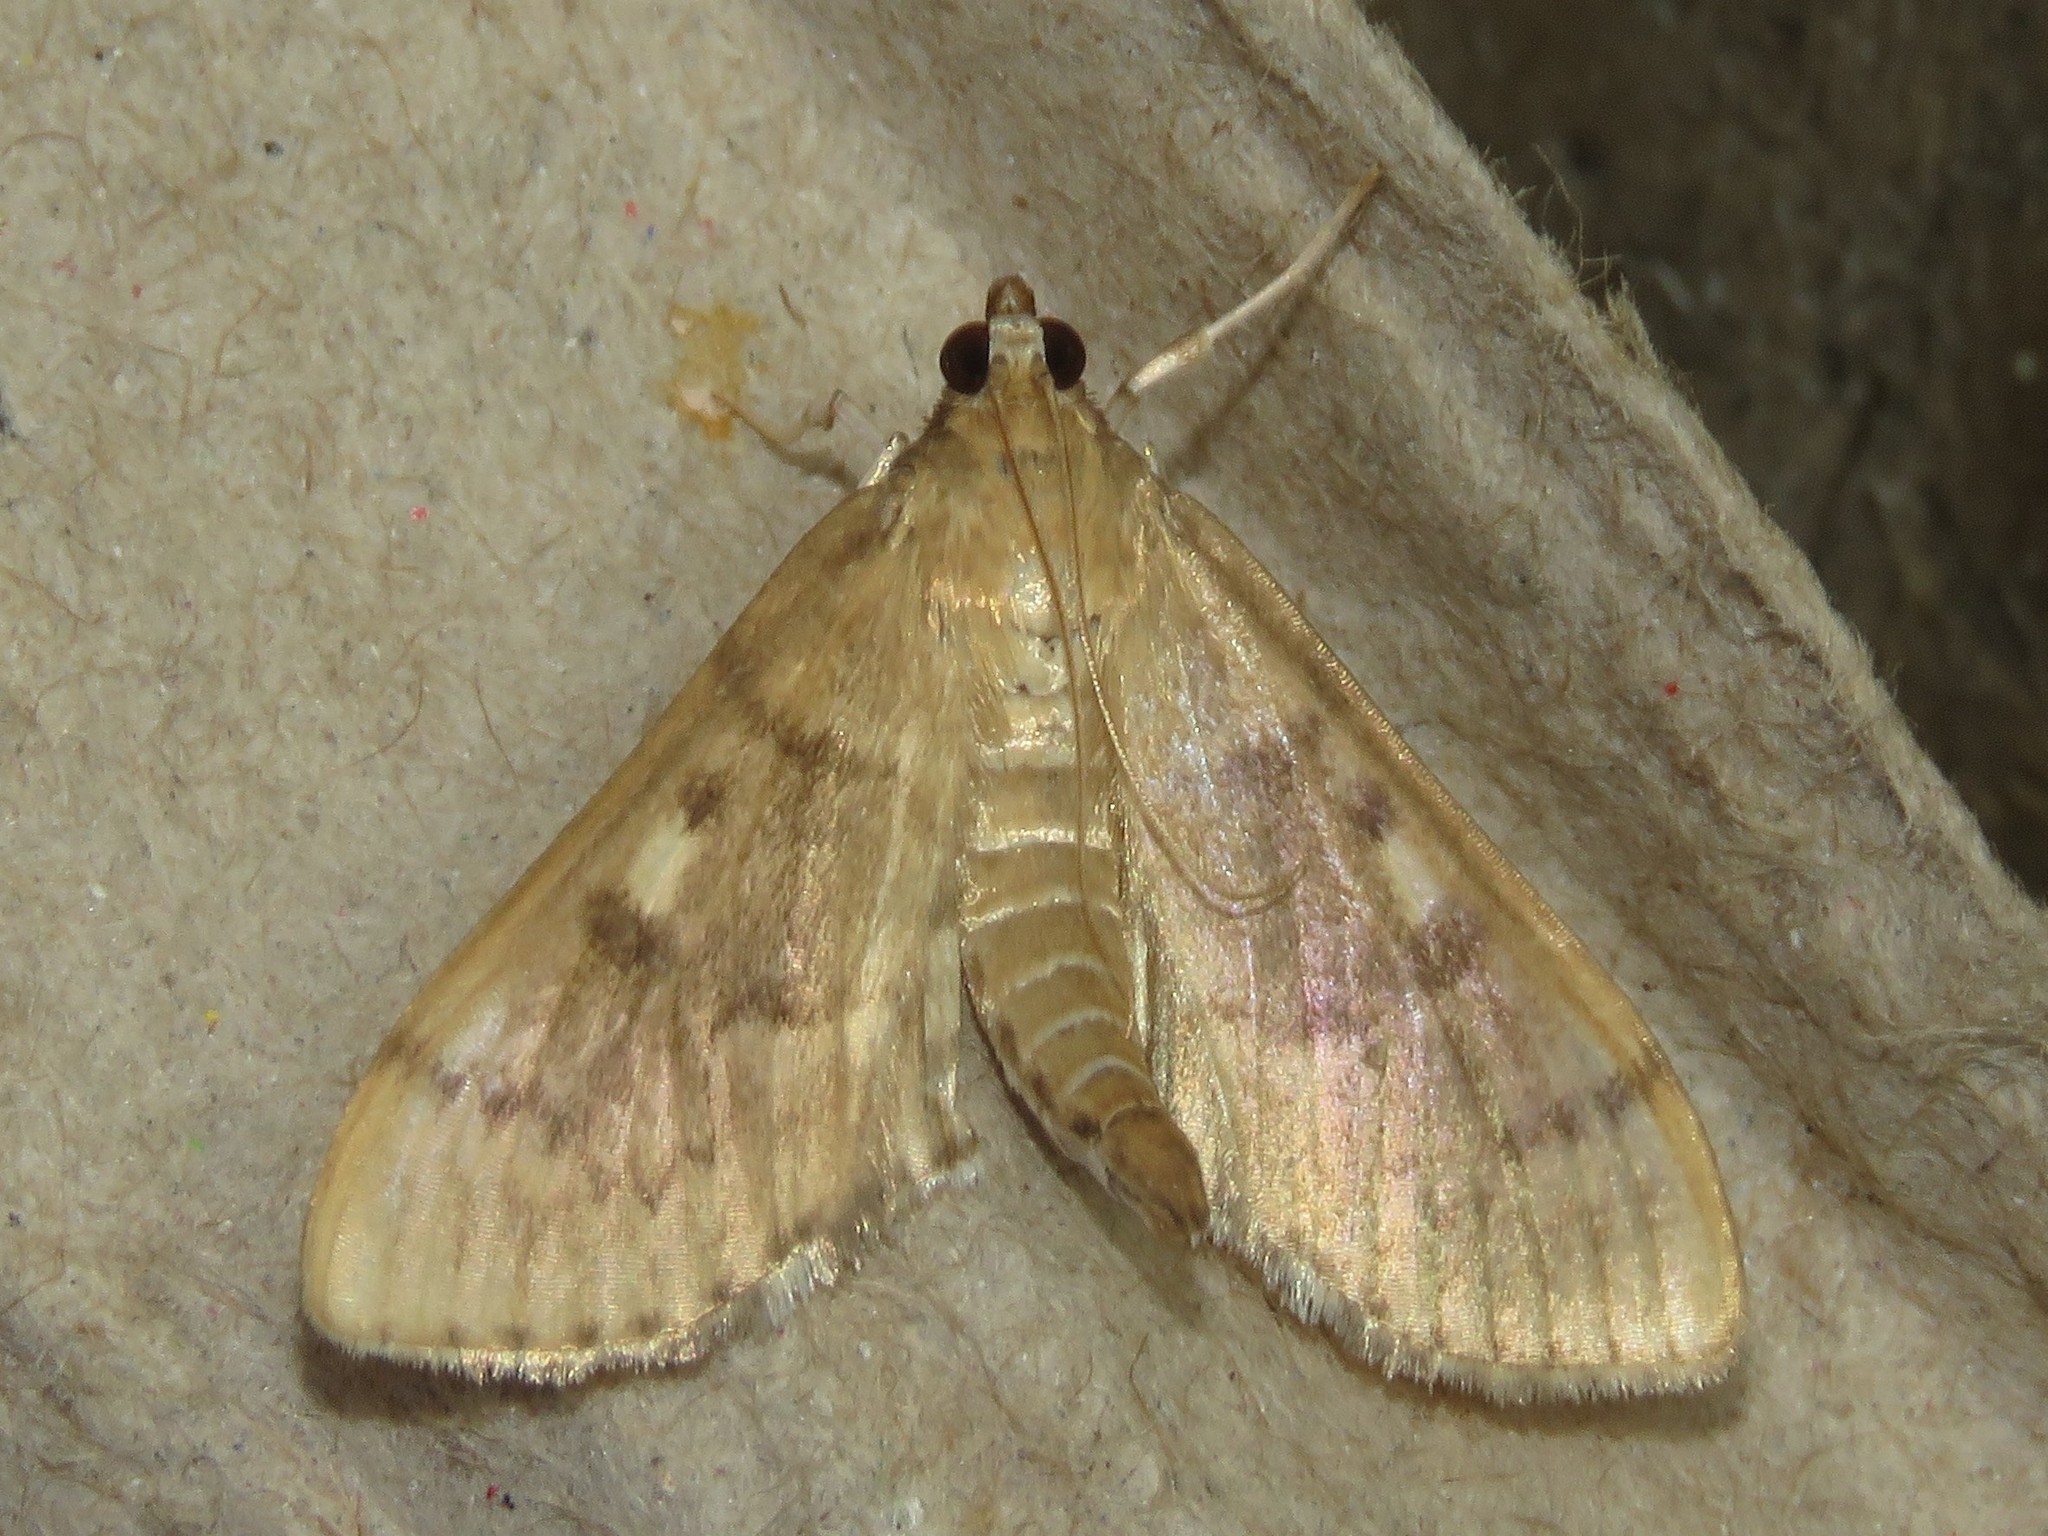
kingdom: Animalia
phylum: Arthropoda
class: Insecta
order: Lepidoptera
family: Crambidae
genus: Herpetogramma
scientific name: Herpetogramma aeglealis
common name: Serpentine webworm moth
